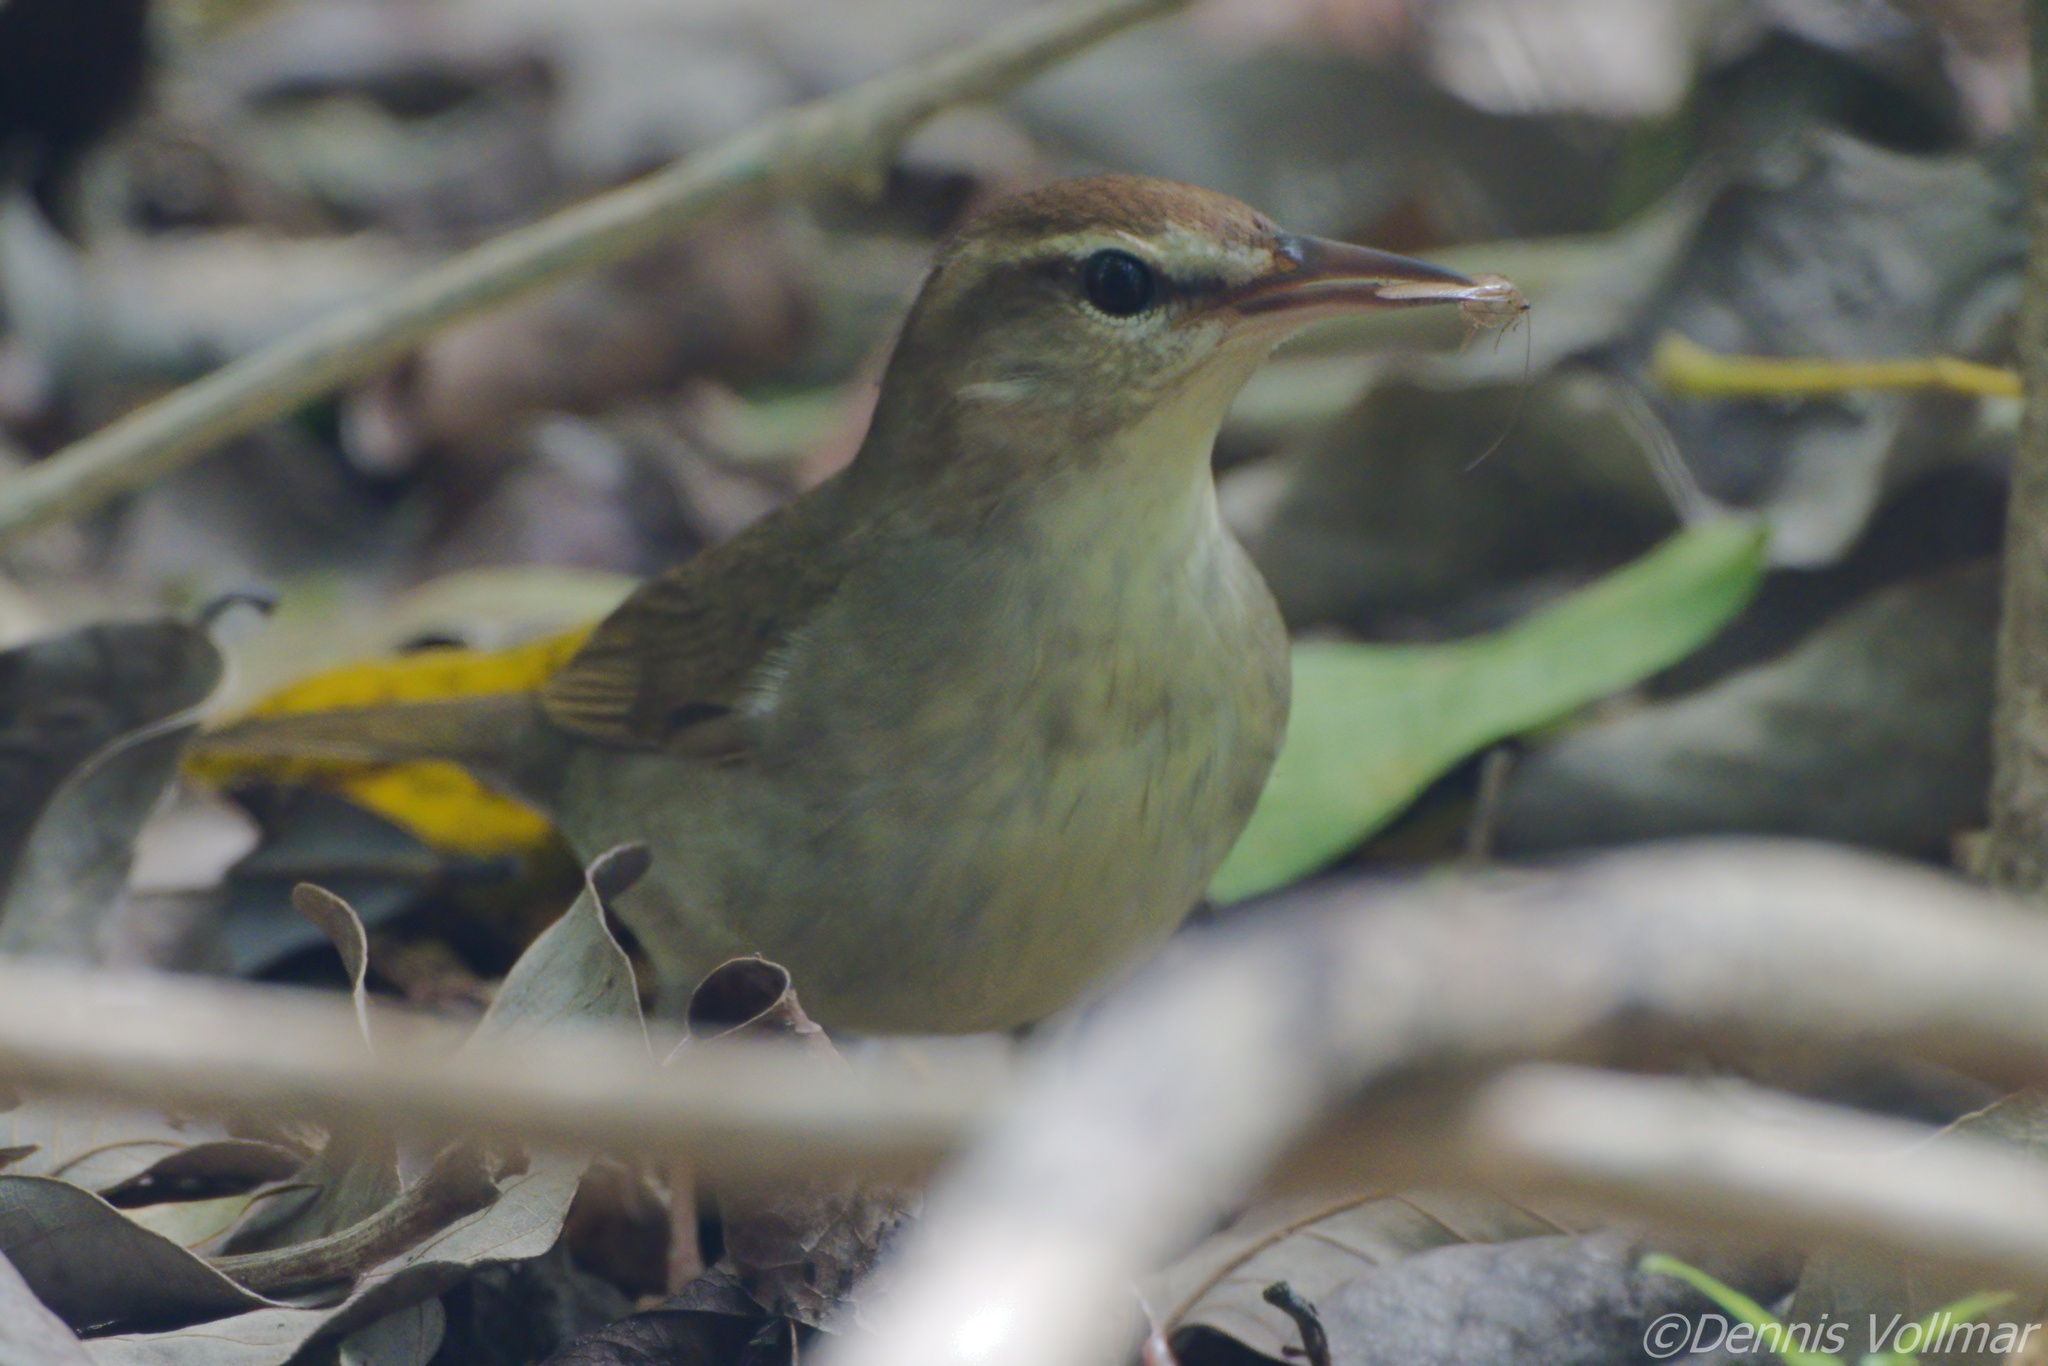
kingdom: Animalia
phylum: Chordata
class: Aves
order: Passeriformes
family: Parulidae
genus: Limnothlypis
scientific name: Limnothlypis swainsonii
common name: Swainson's warbler
